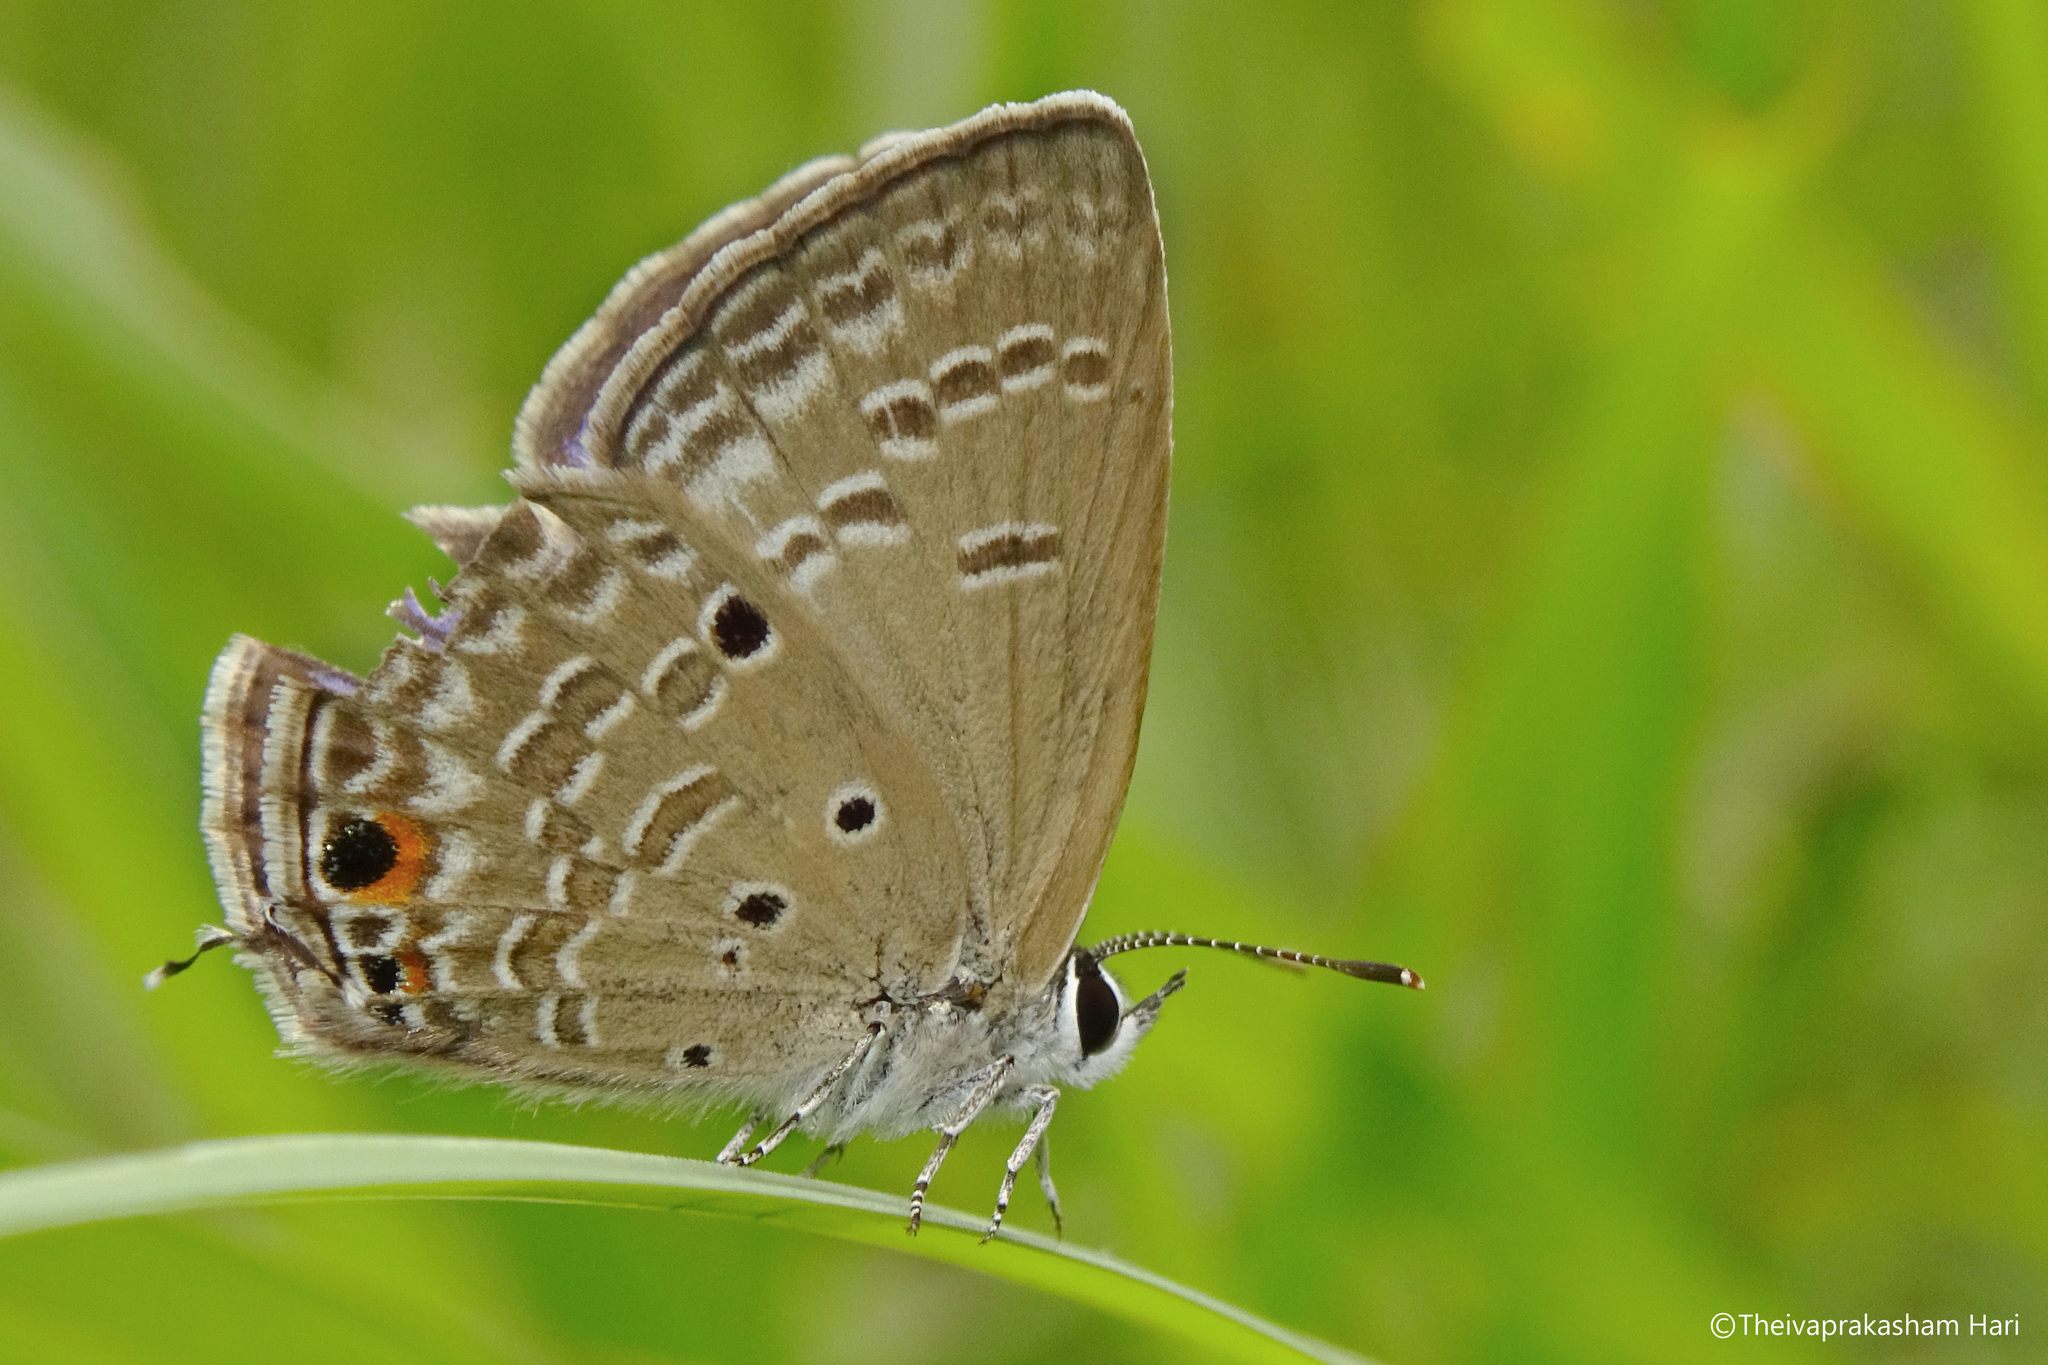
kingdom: Animalia
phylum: Arthropoda
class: Insecta
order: Lepidoptera
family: Lycaenidae
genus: Luthrodes
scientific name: Luthrodes pandava
